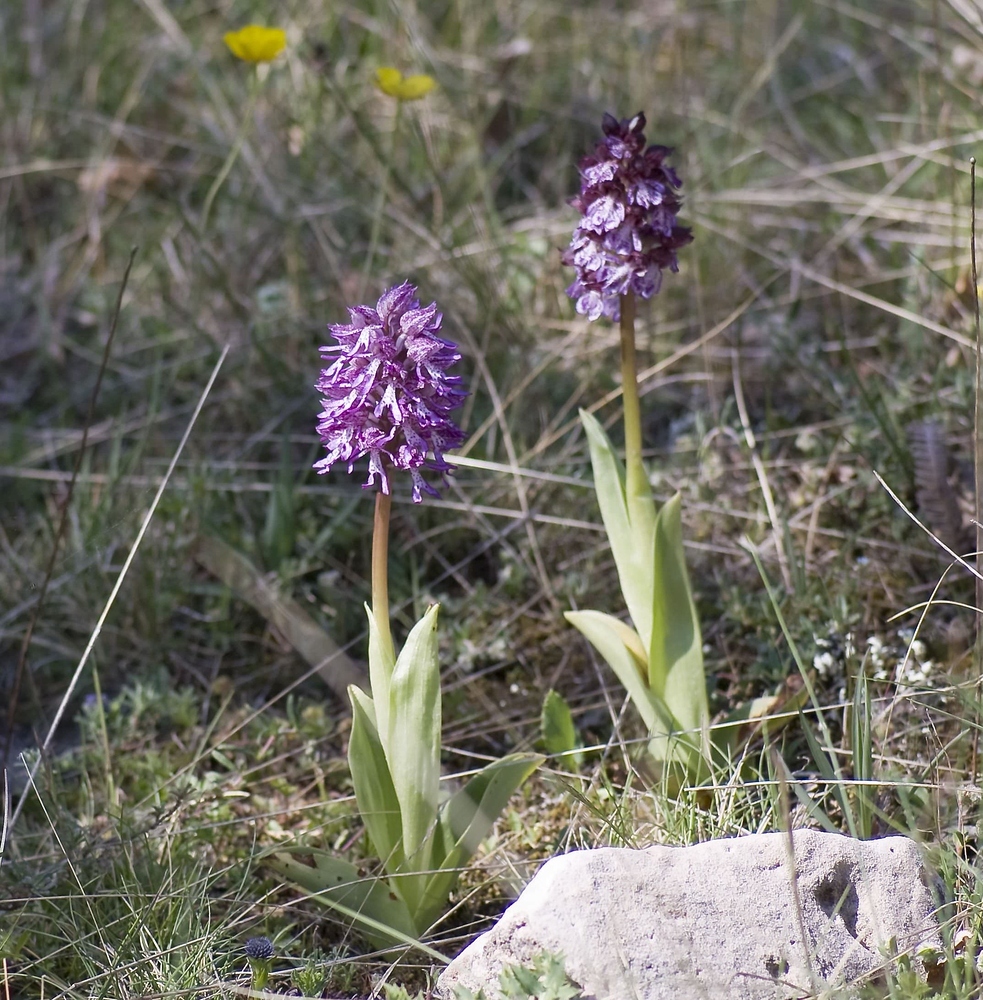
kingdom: Plantae
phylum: Tracheophyta
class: Liliopsida
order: Asparagales
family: Orchidaceae
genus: Orchis
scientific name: Orchis angusticruris
